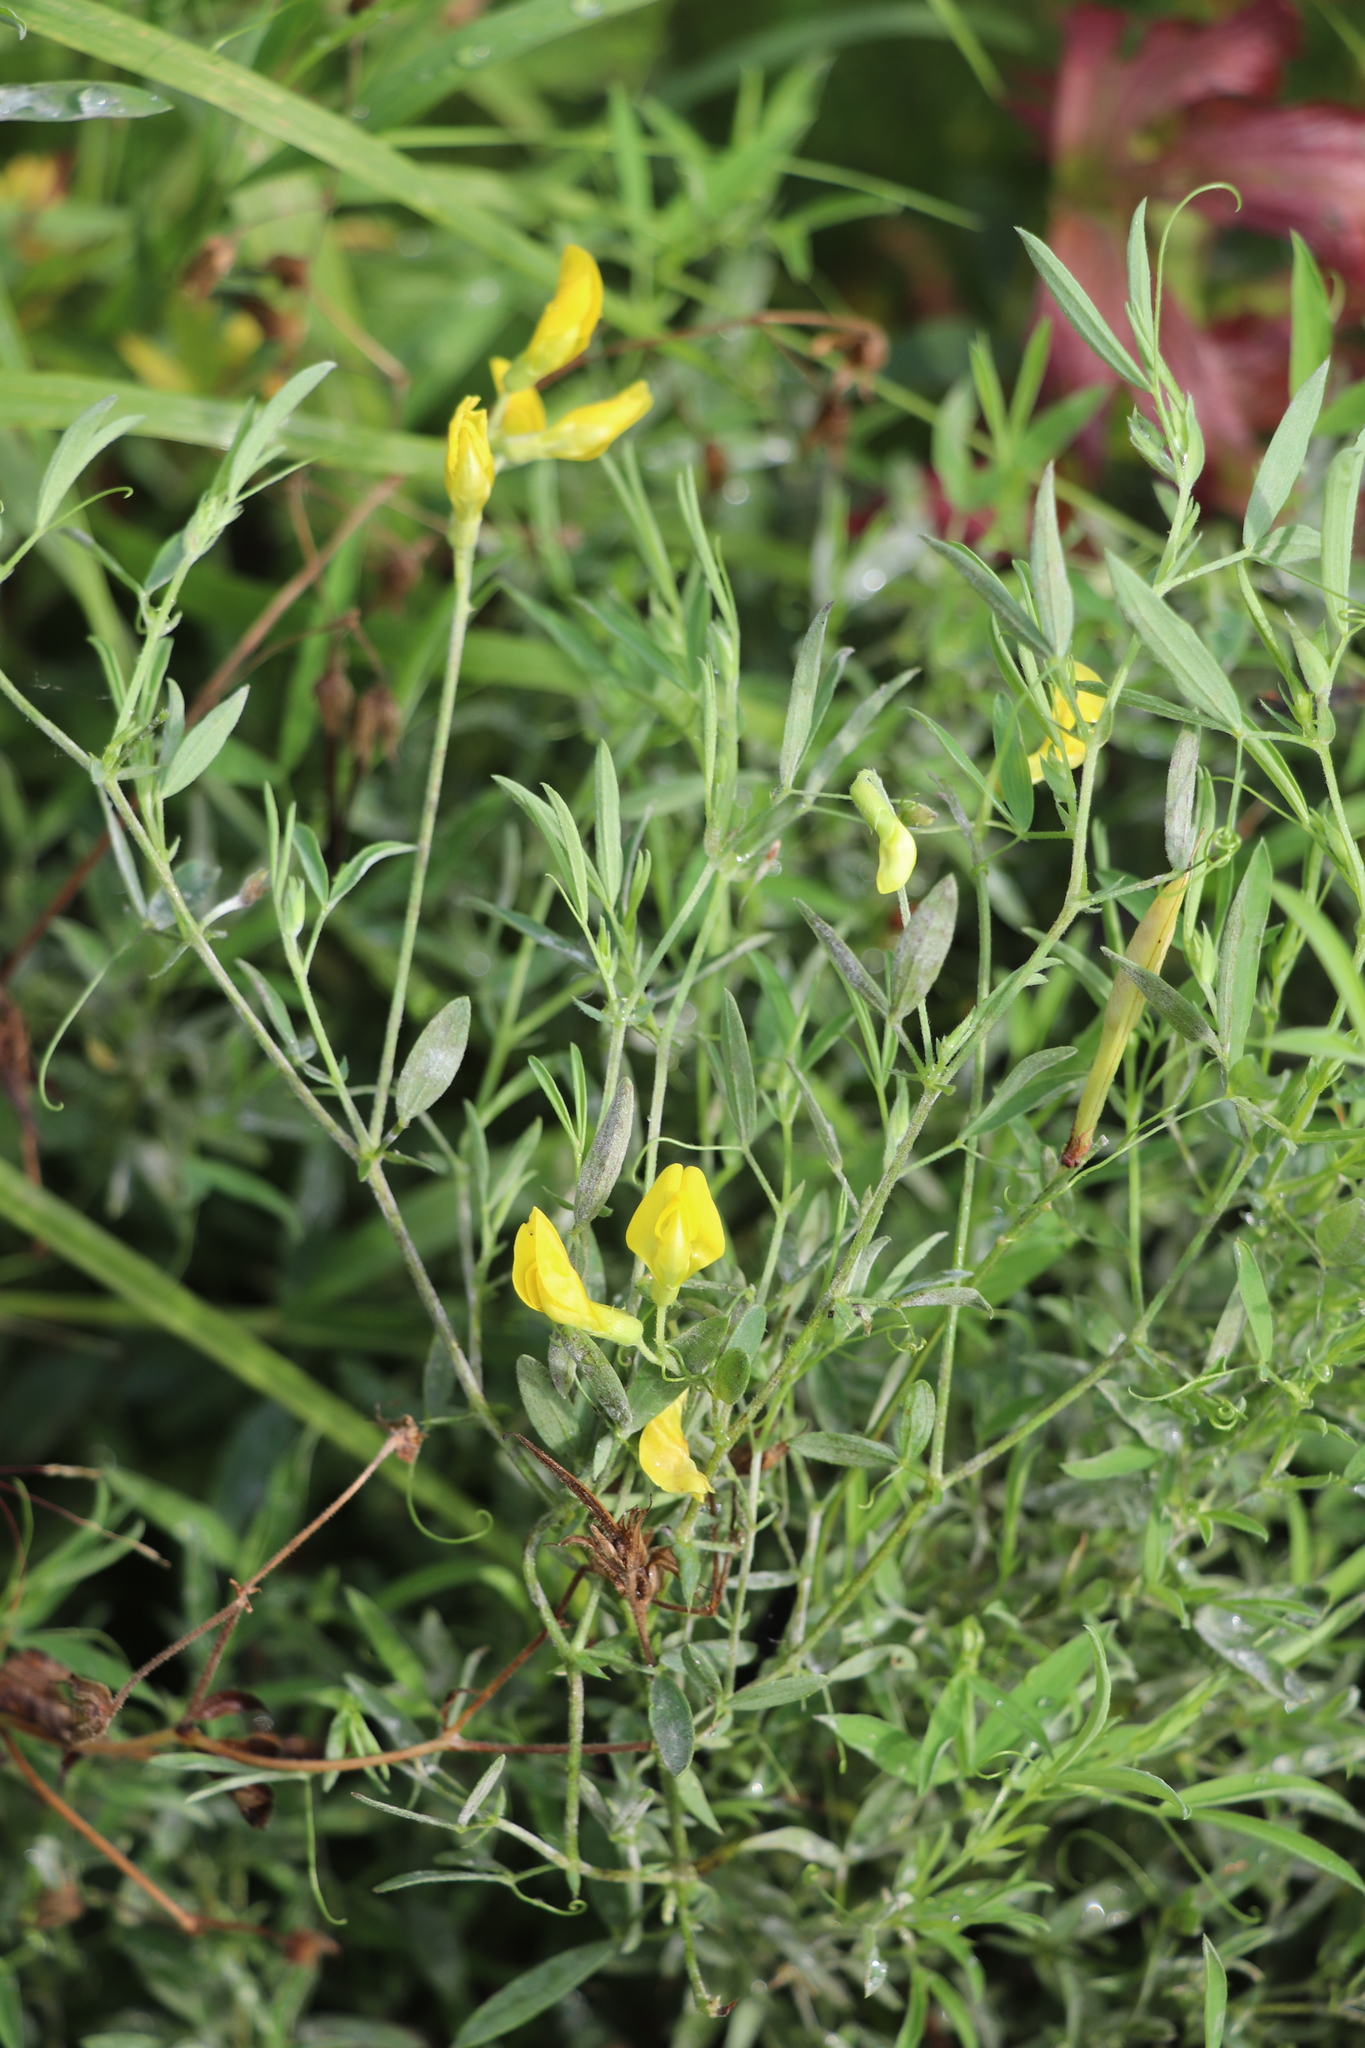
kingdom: Plantae
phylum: Tracheophyta
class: Magnoliopsida
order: Fabales
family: Fabaceae
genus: Lathyrus
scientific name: Lathyrus pratensis
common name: Meadow vetchling
